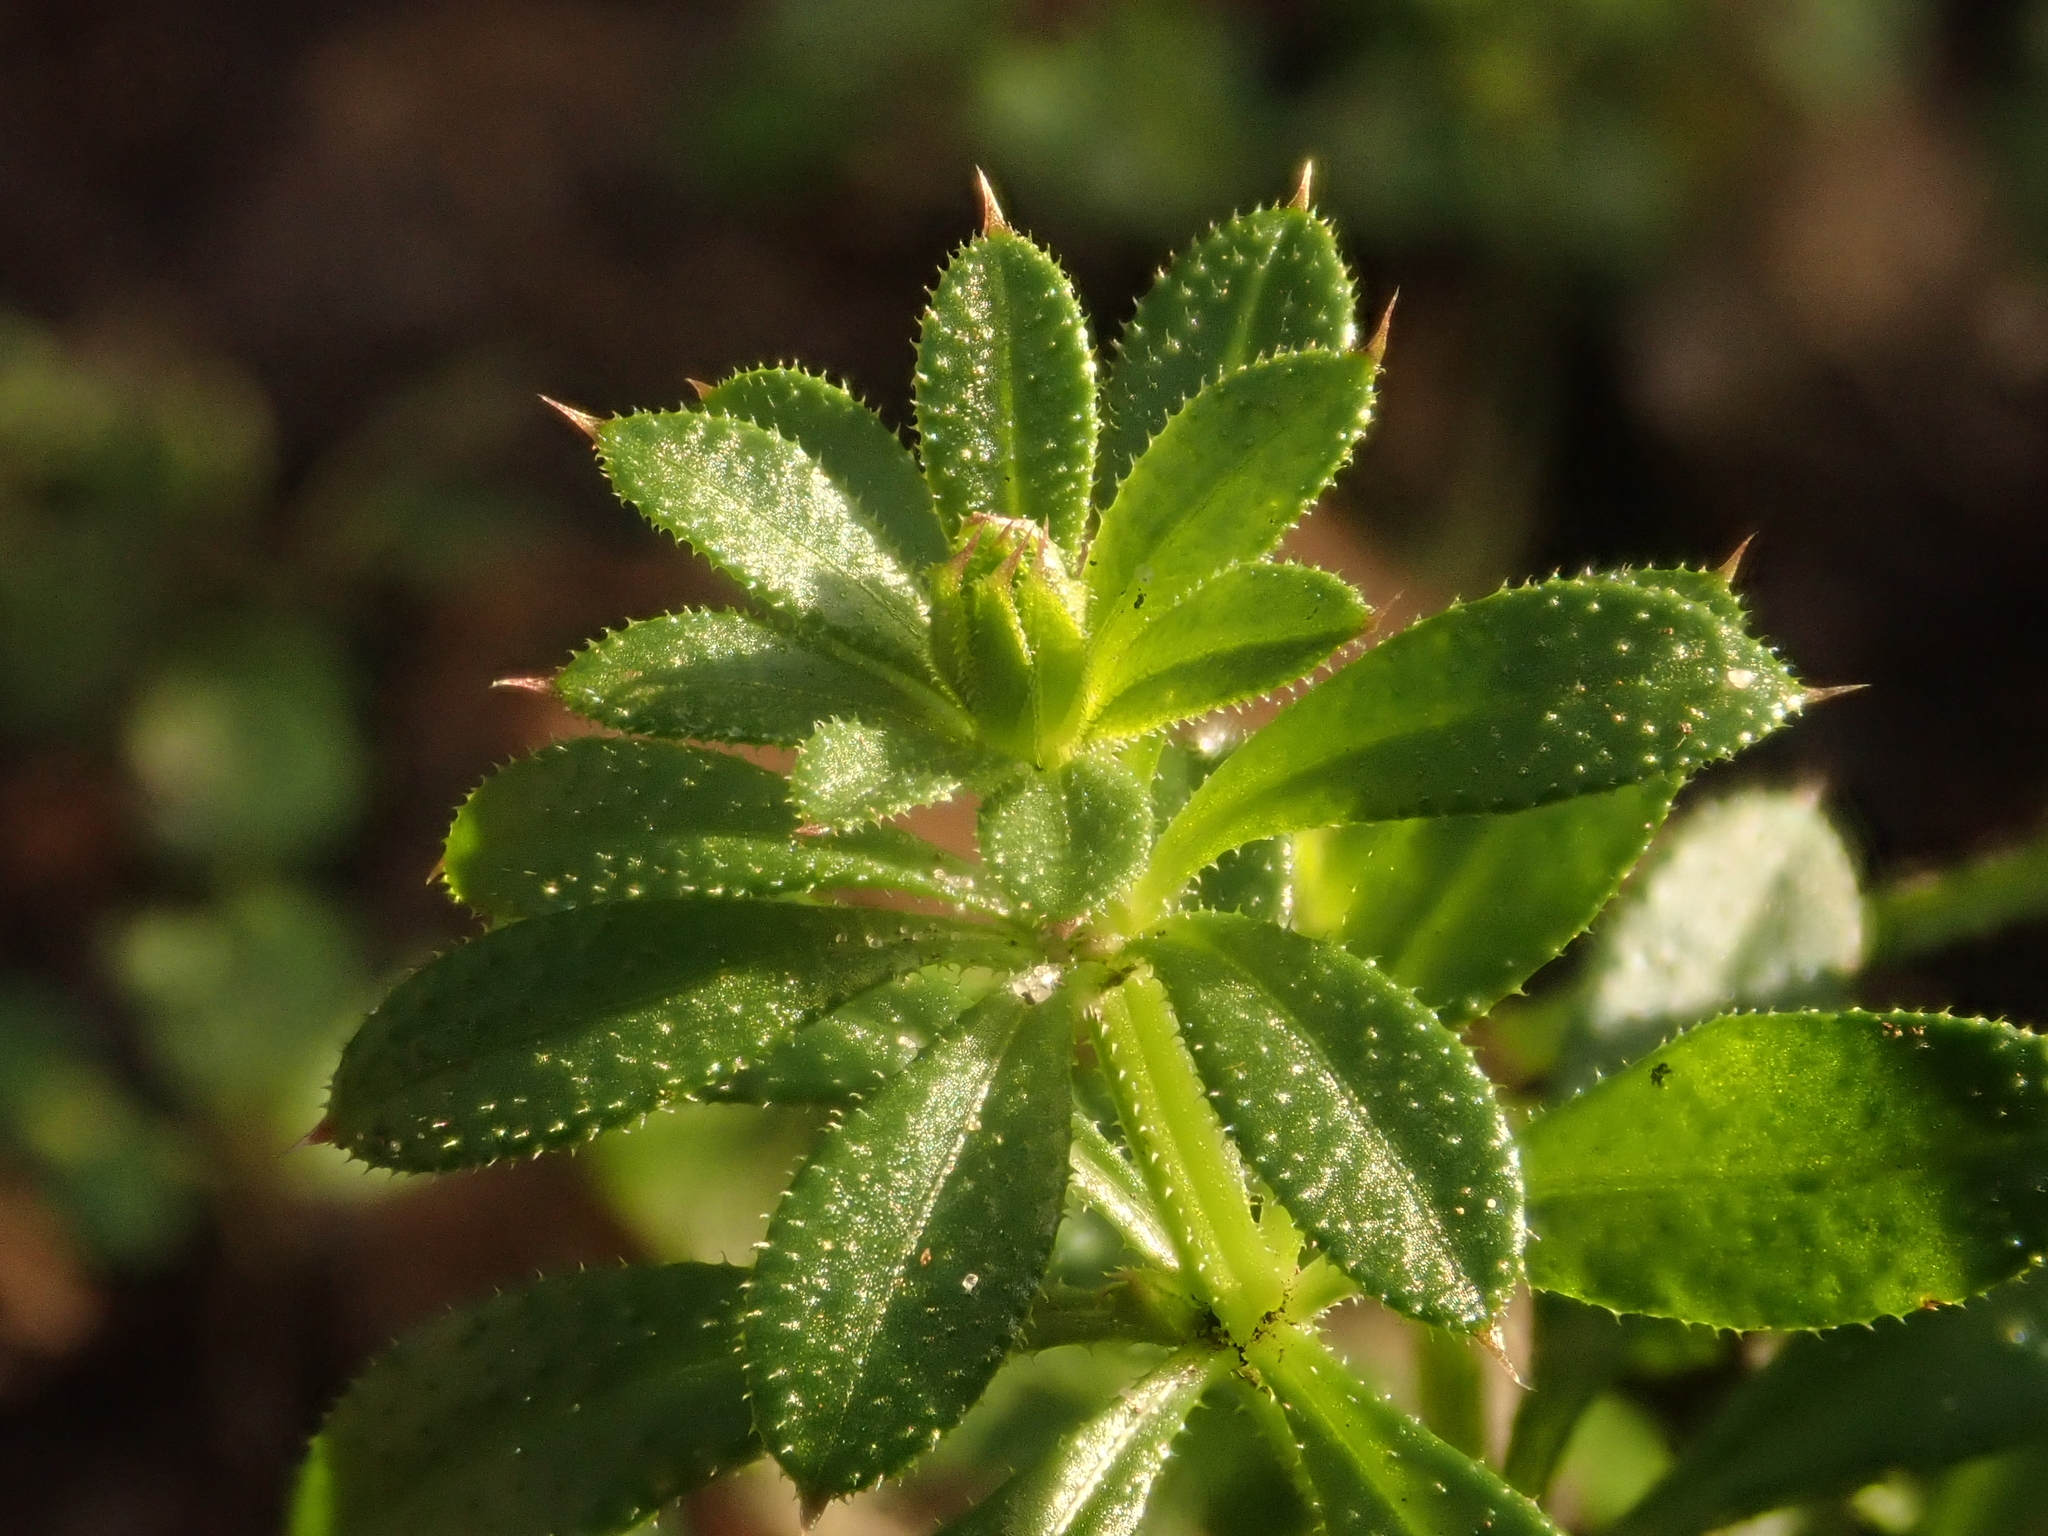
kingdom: Plantae
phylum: Tracheophyta
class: Magnoliopsida
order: Gentianales
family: Rubiaceae
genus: Galium
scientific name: Galium aparine
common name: Cleavers
